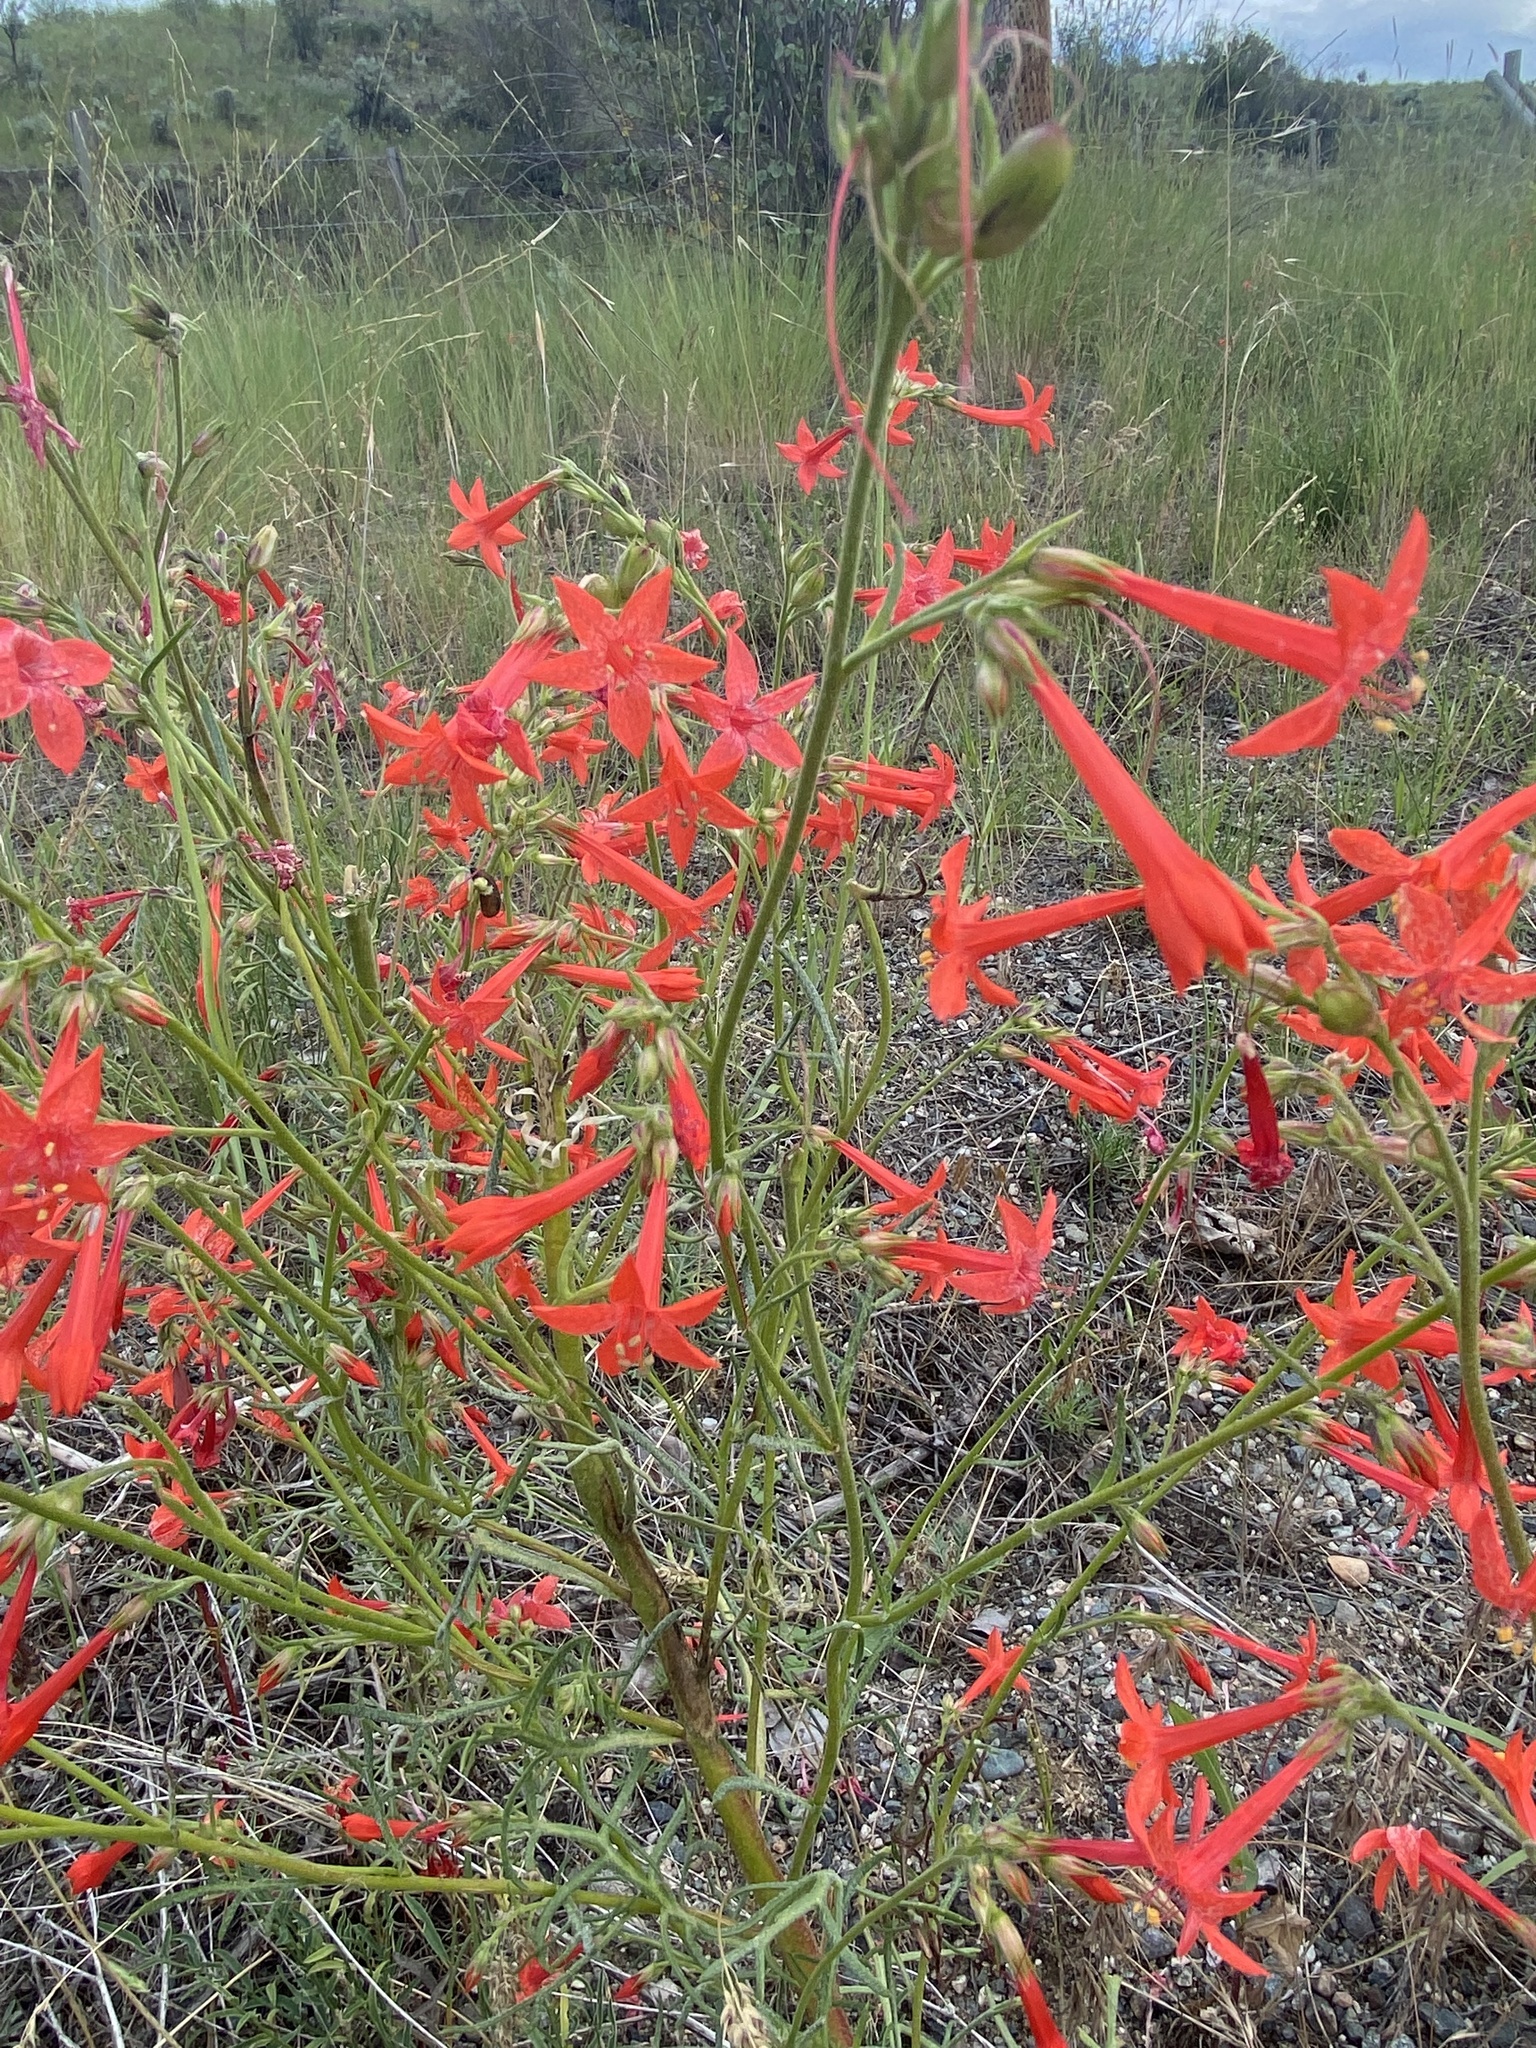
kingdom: Plantae
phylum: Tracheophyta
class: Magnoliopsida
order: Ericales
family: Polemoniaceae
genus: Ipomopsis
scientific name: Ipomopsis aggregata
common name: Scarlet gilia
